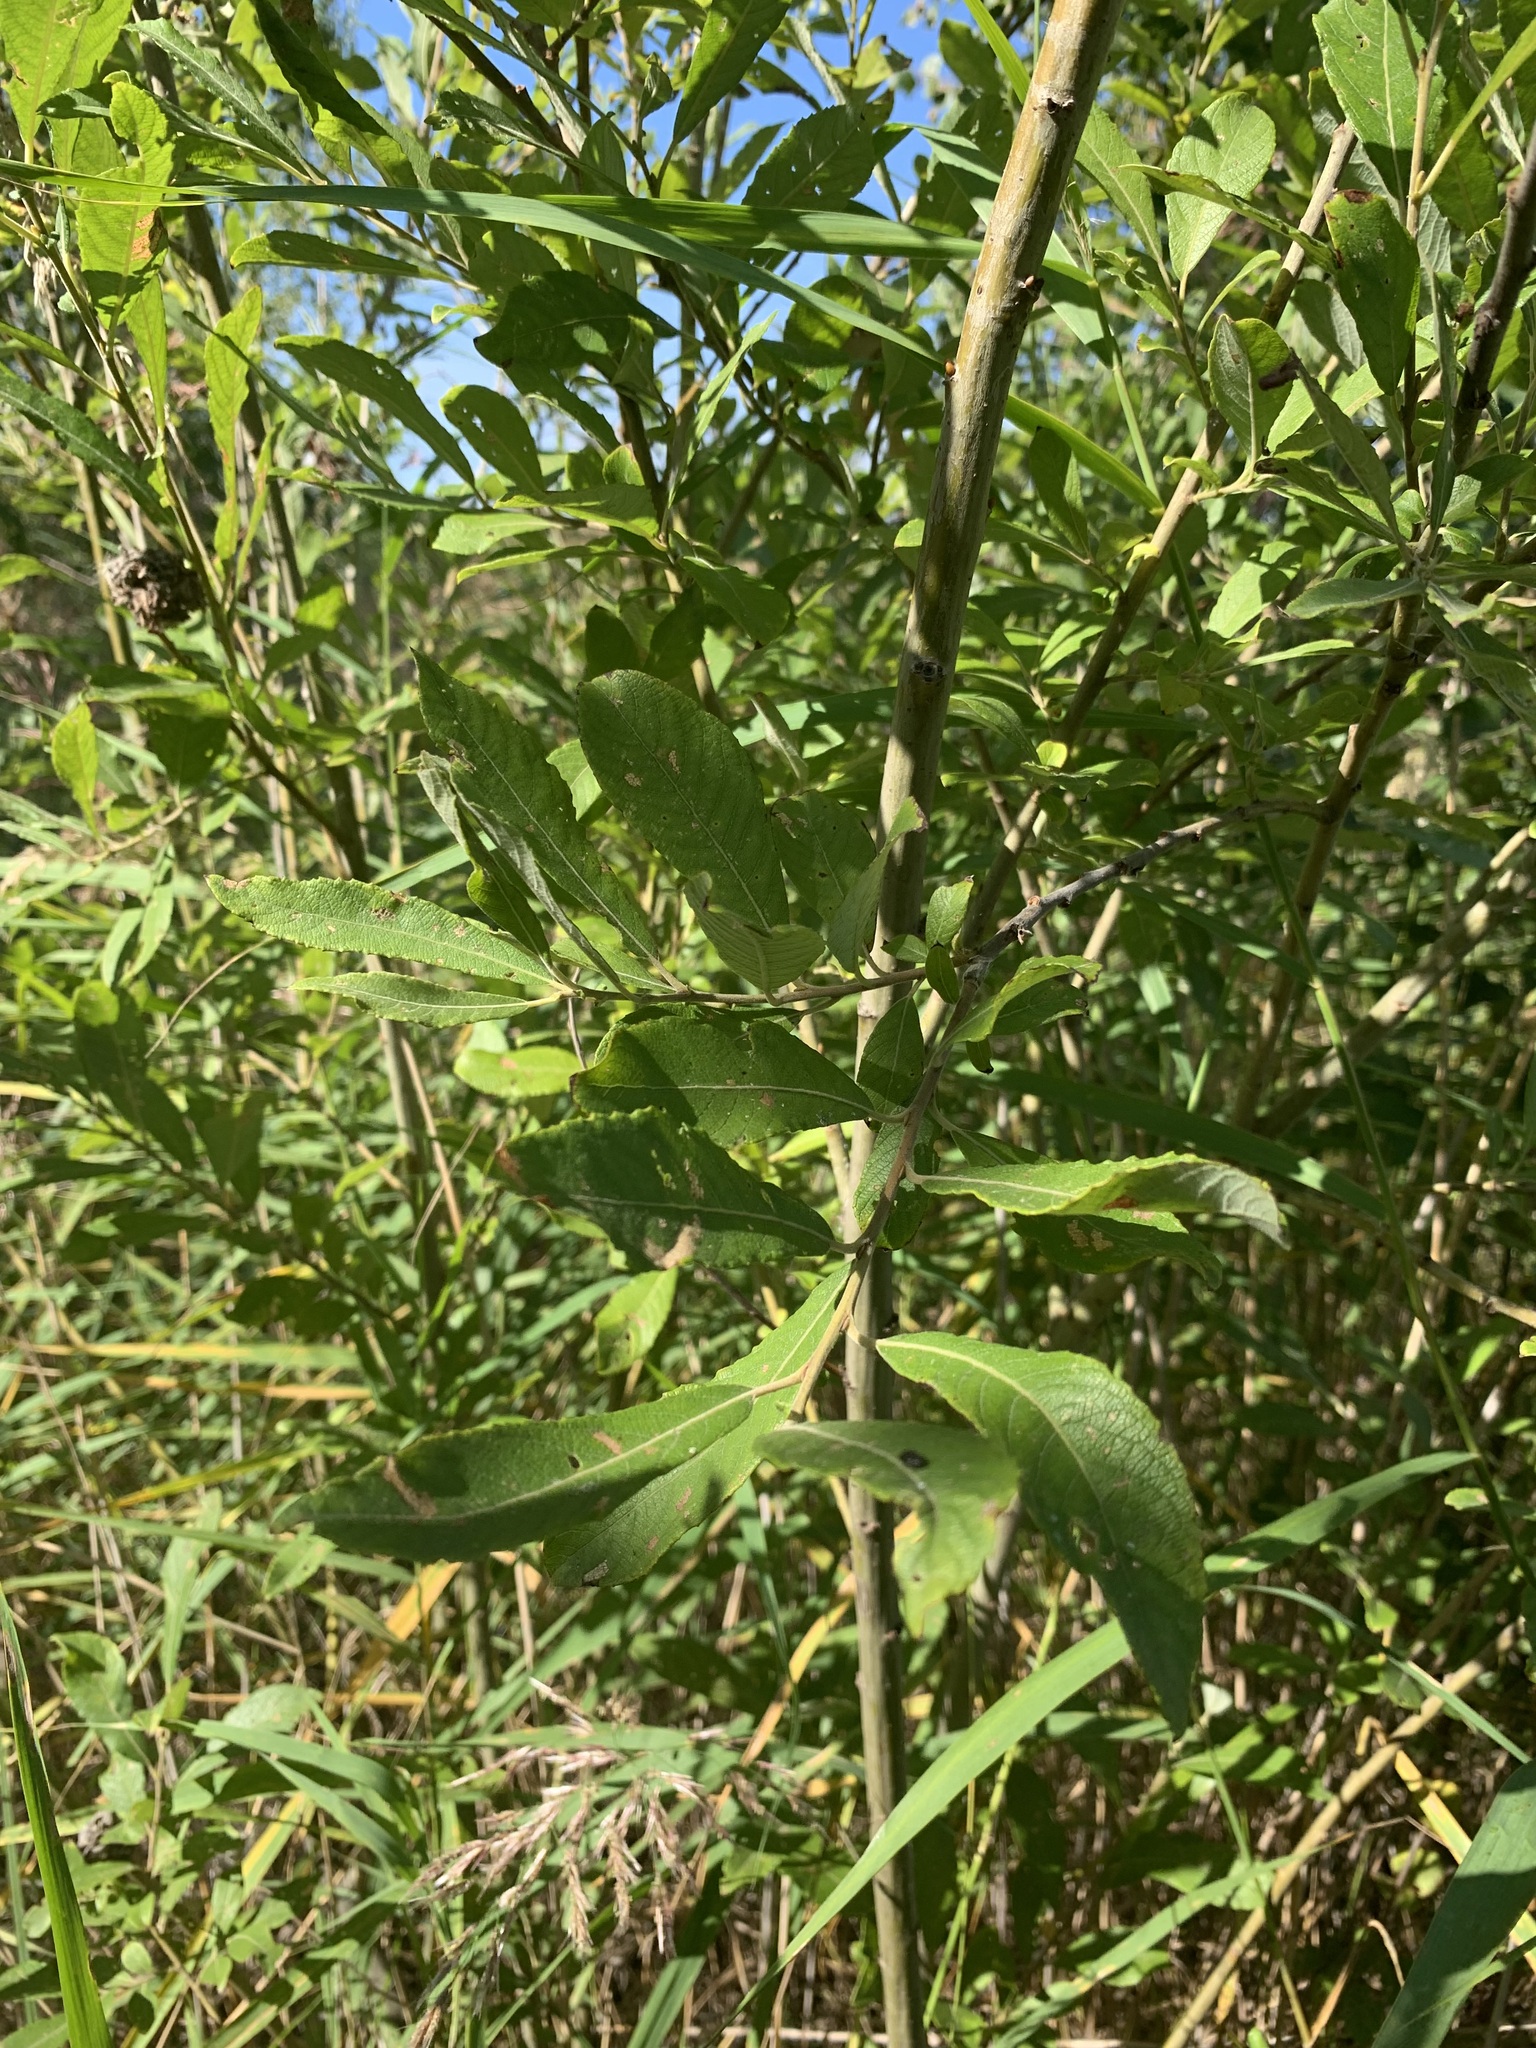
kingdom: Plantae
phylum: Tracheophyta
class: Magnoliopsida
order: Malpighiales
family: Salicaceae
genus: Salix
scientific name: Salix cinerea
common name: Common sallow
